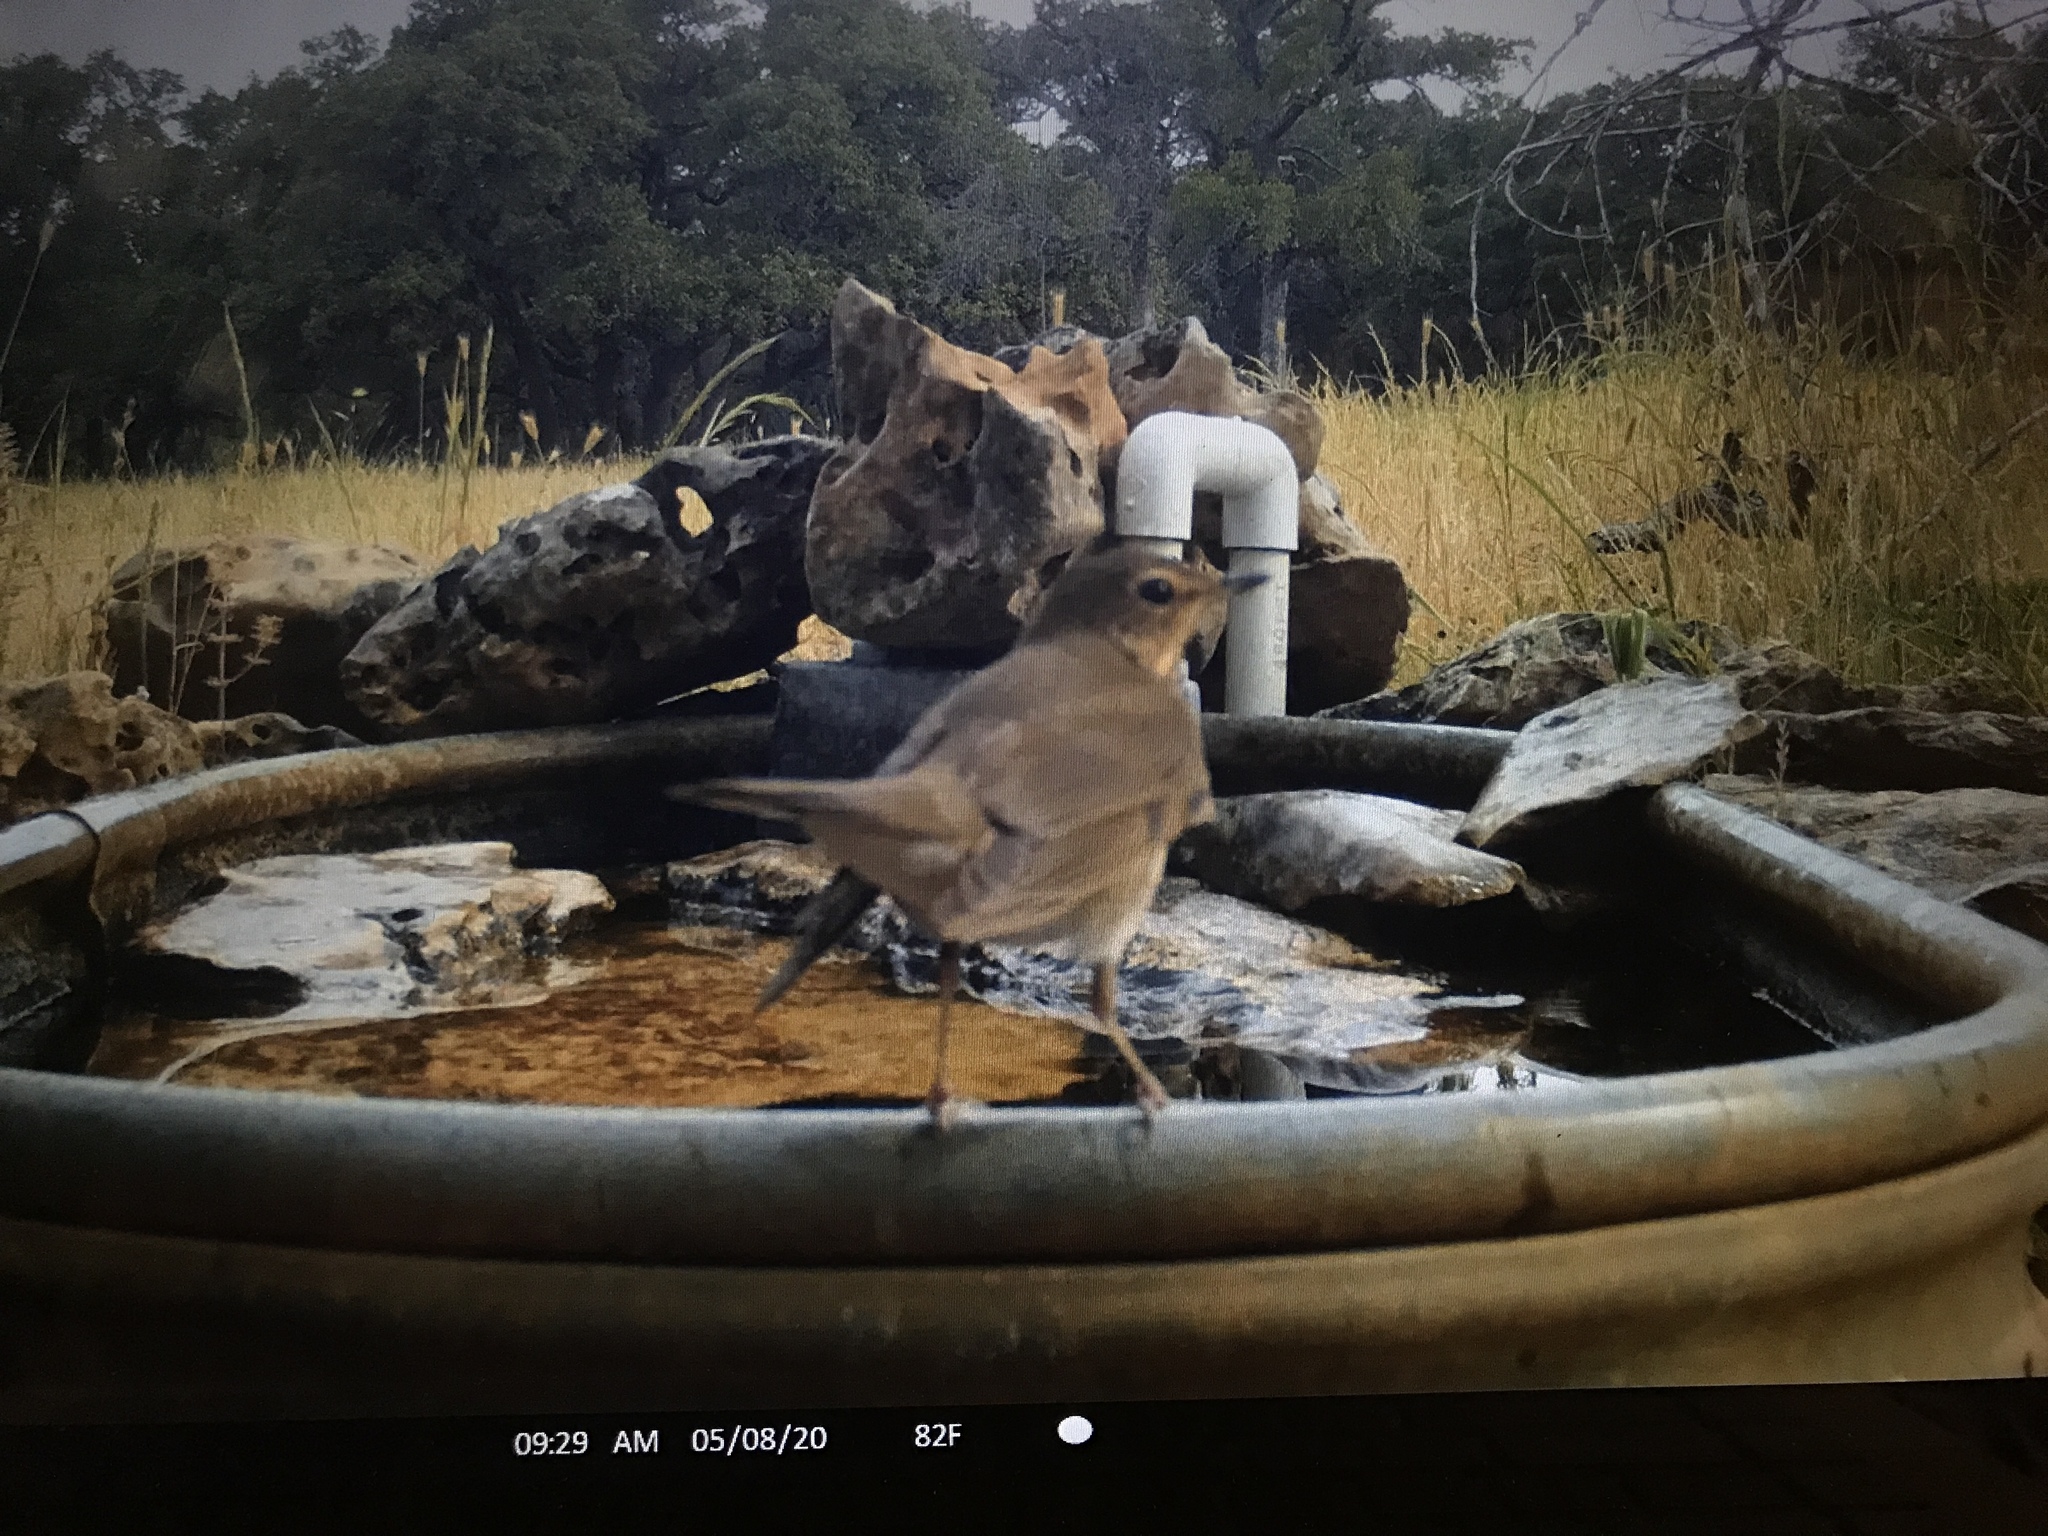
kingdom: Animalia
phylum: Chordata
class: Aves
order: Passeriformes
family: Turdidae
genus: Catharus
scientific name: Catharus ustulatus
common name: Swainson's thrush
